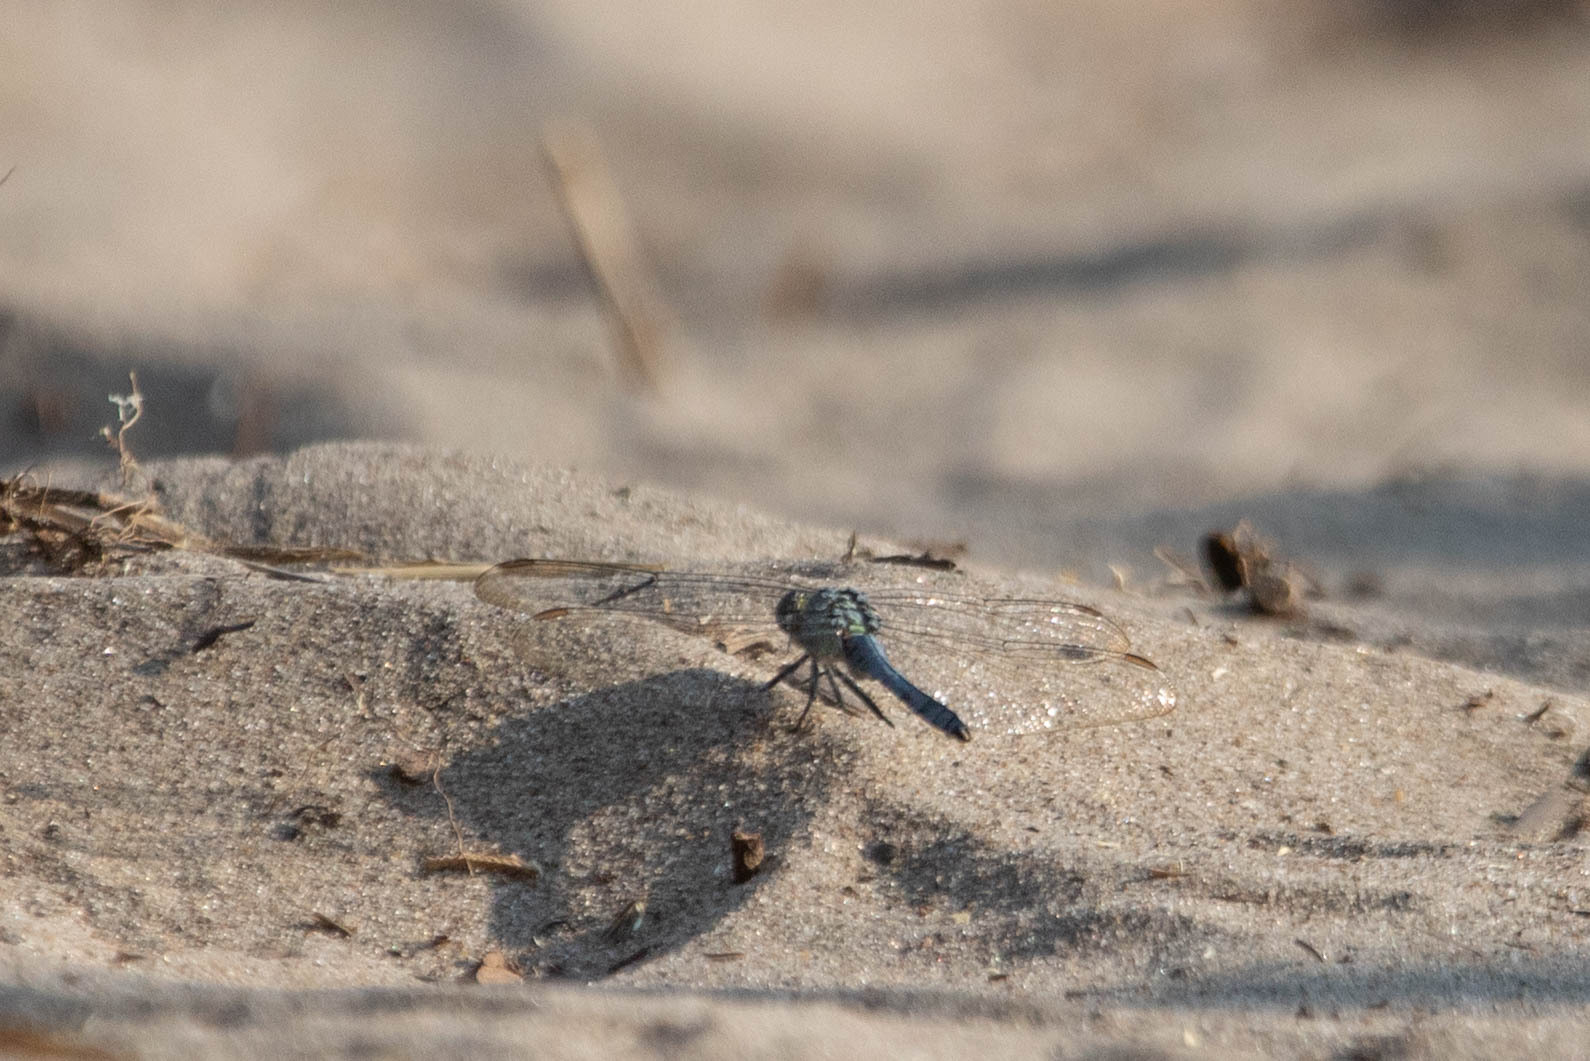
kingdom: Animalia
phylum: Arthropoda
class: Insecta
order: Odonata
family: Libellulidae
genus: Erythemis
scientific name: Erythemis simplicicollis
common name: Eastern pondhawk
